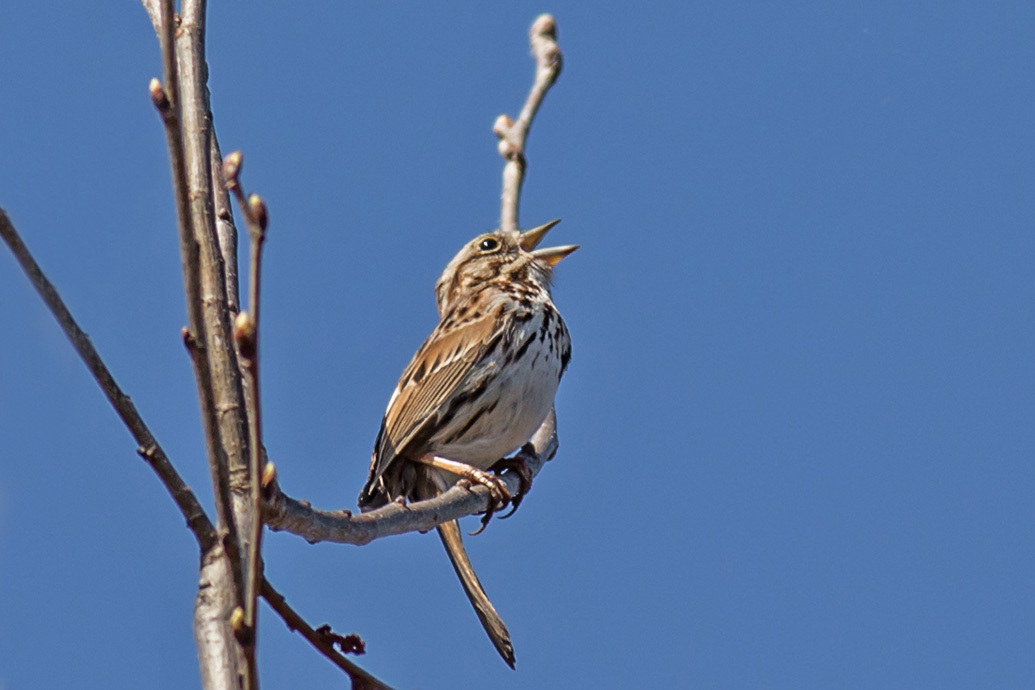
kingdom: Animalia
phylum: Chordata
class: Aves
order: Passeriformes
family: Passerellidae
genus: Melospiza
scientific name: Melospiza melodia
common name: Song sparrow
